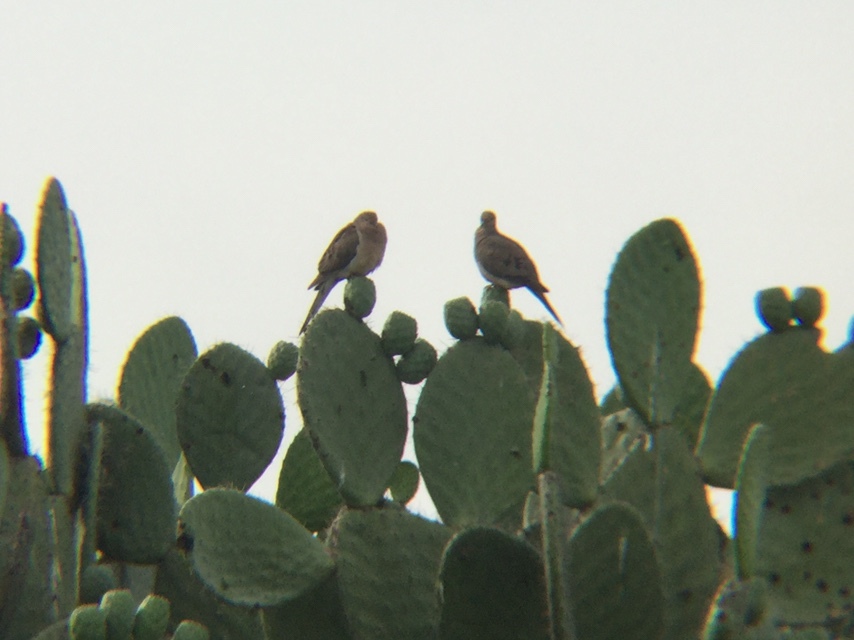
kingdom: Animalia
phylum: Chordata
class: Aves
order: Columbiformes
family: Columbidae
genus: Zenaida
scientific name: Zenaida macroura
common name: Mourning dove
